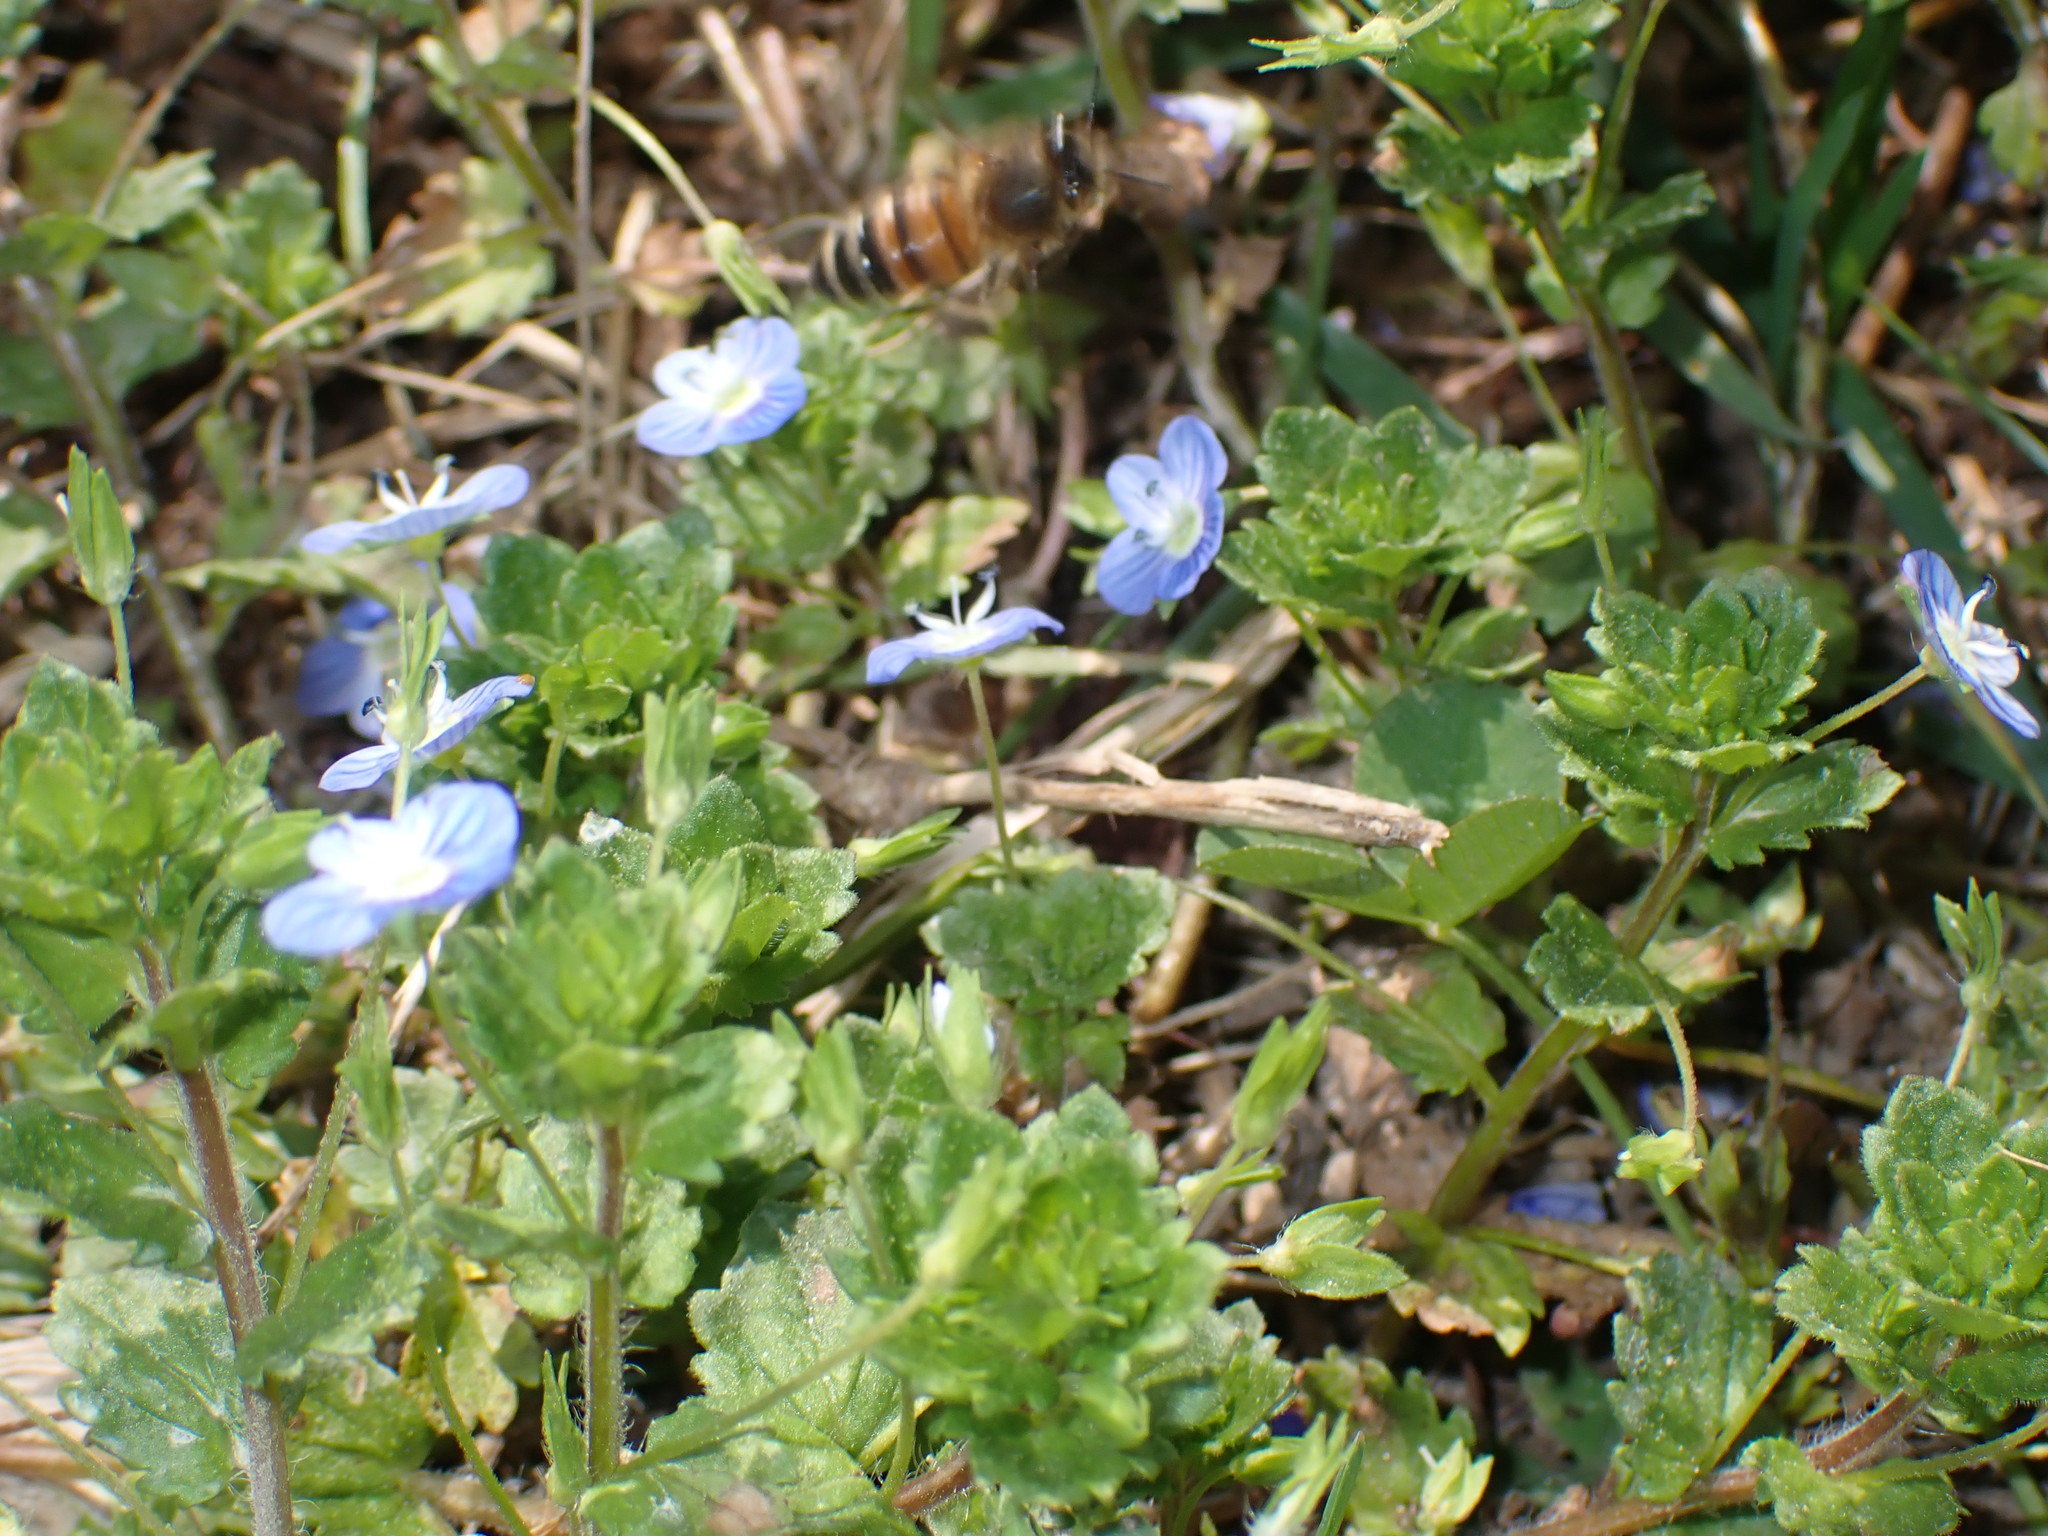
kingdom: Plantae
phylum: Tracheophyta
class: Magnoliopsida
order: Lamiales
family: Plantaginaceae
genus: Veronica
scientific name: Veronica persica
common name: Common field-speedwell
